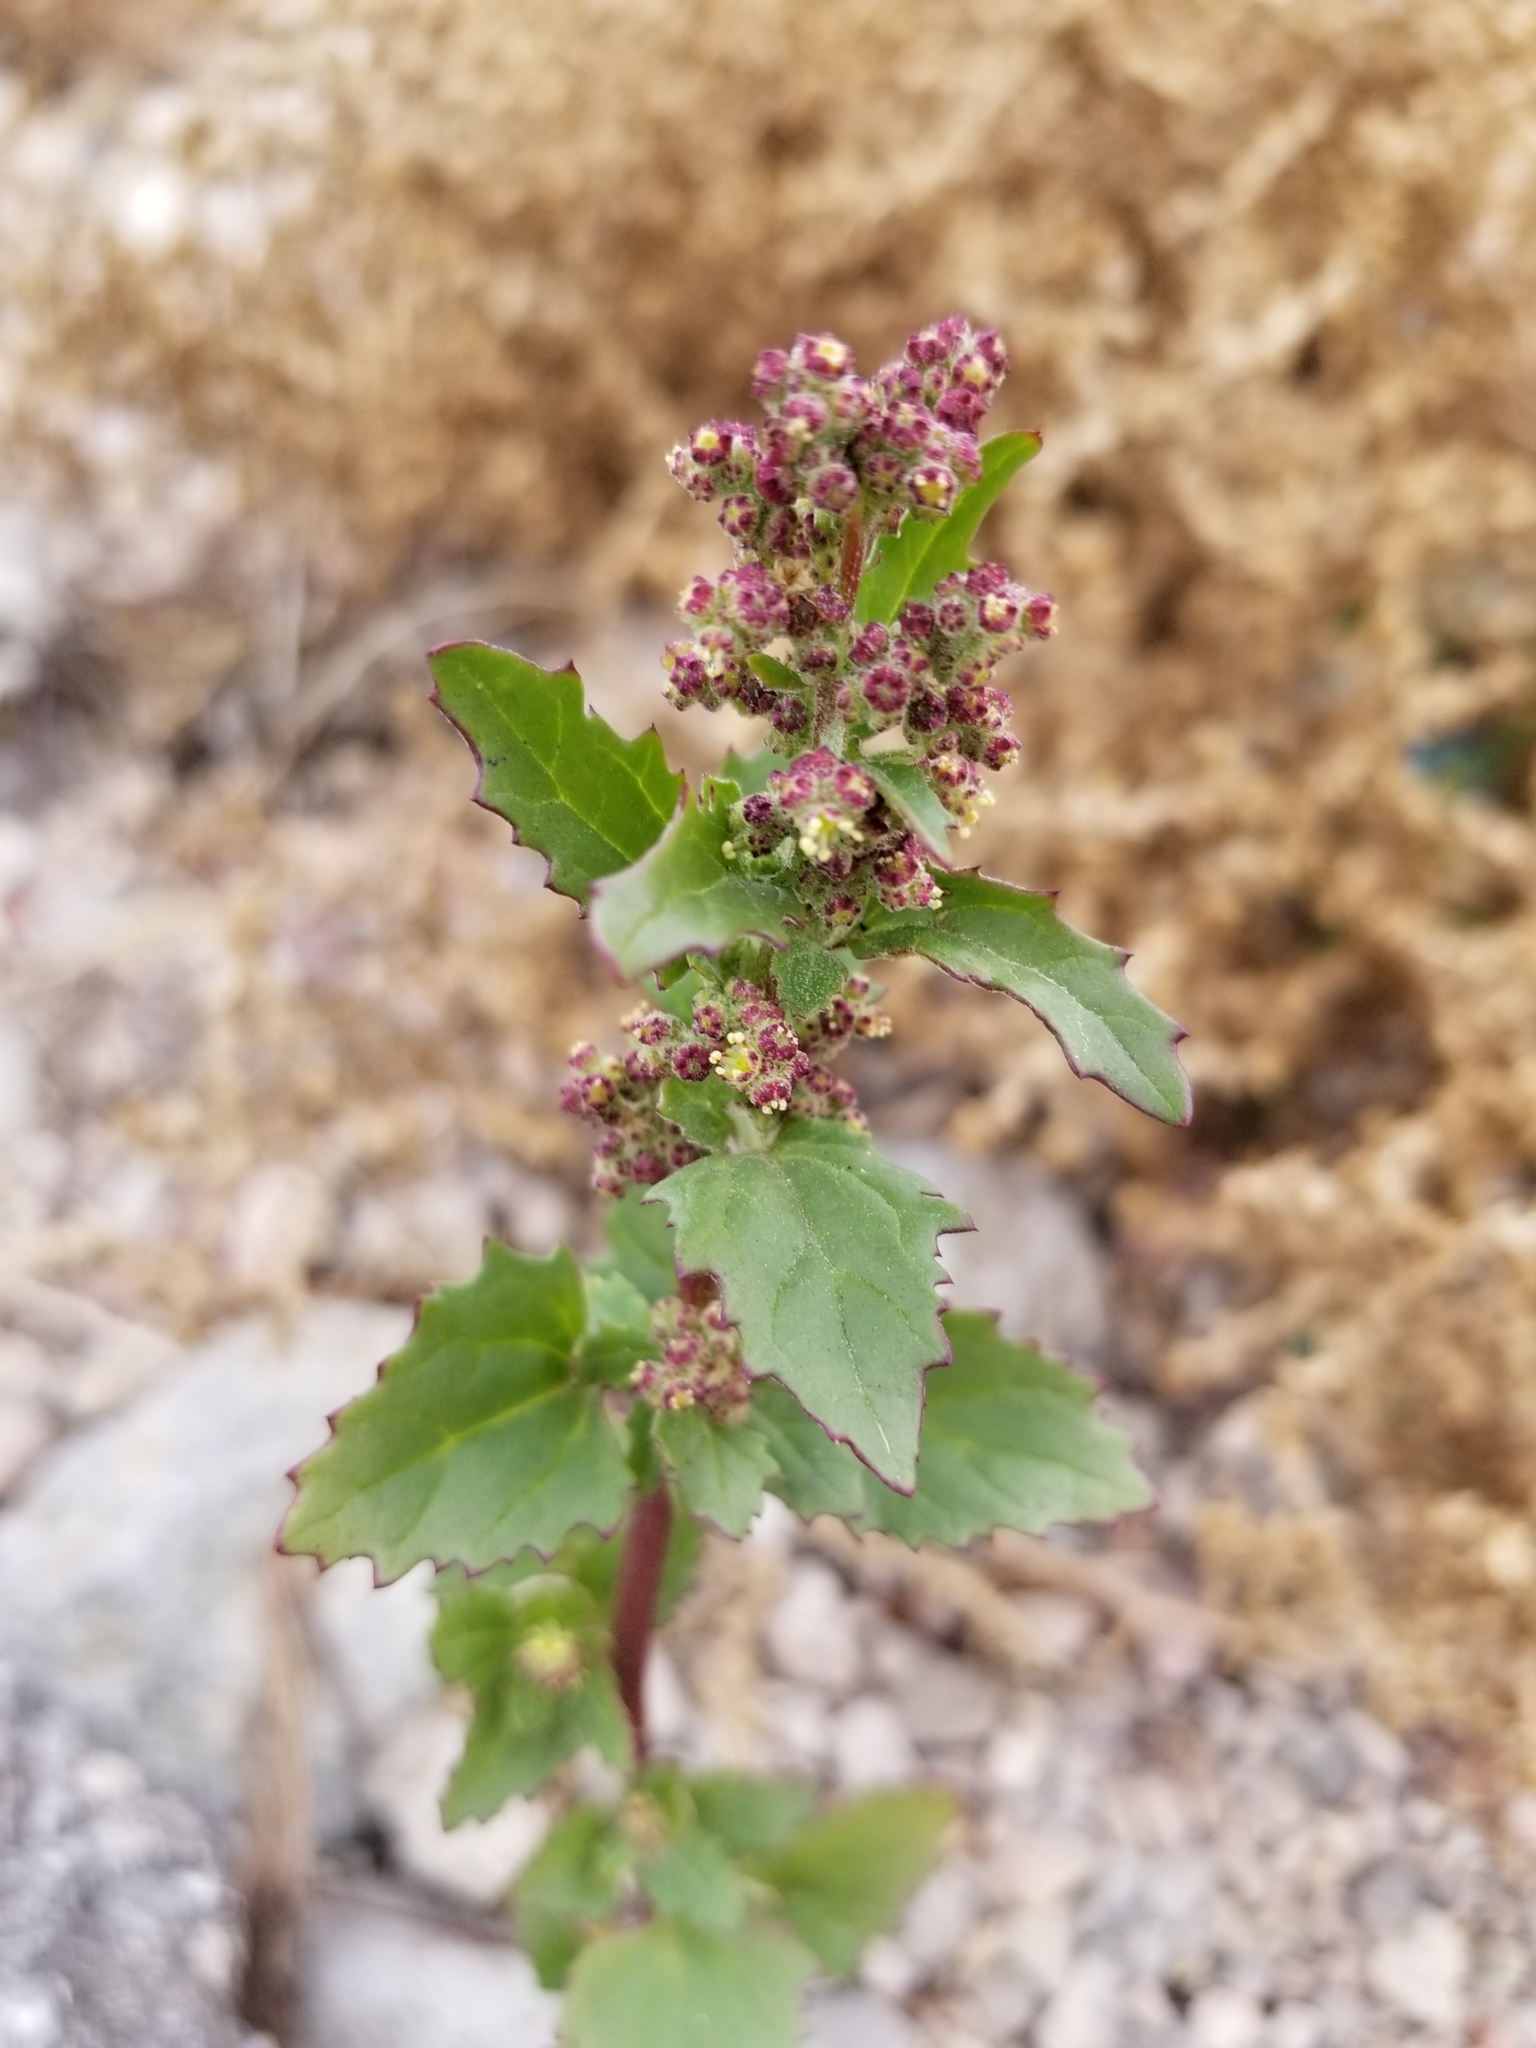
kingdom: Plantae
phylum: Tracheophyta
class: Magnoliopsida
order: Caryophyllales
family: Amaranthaceae
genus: Chenopodiastrum
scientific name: Chenopodiastrum murale
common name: Sowbane
